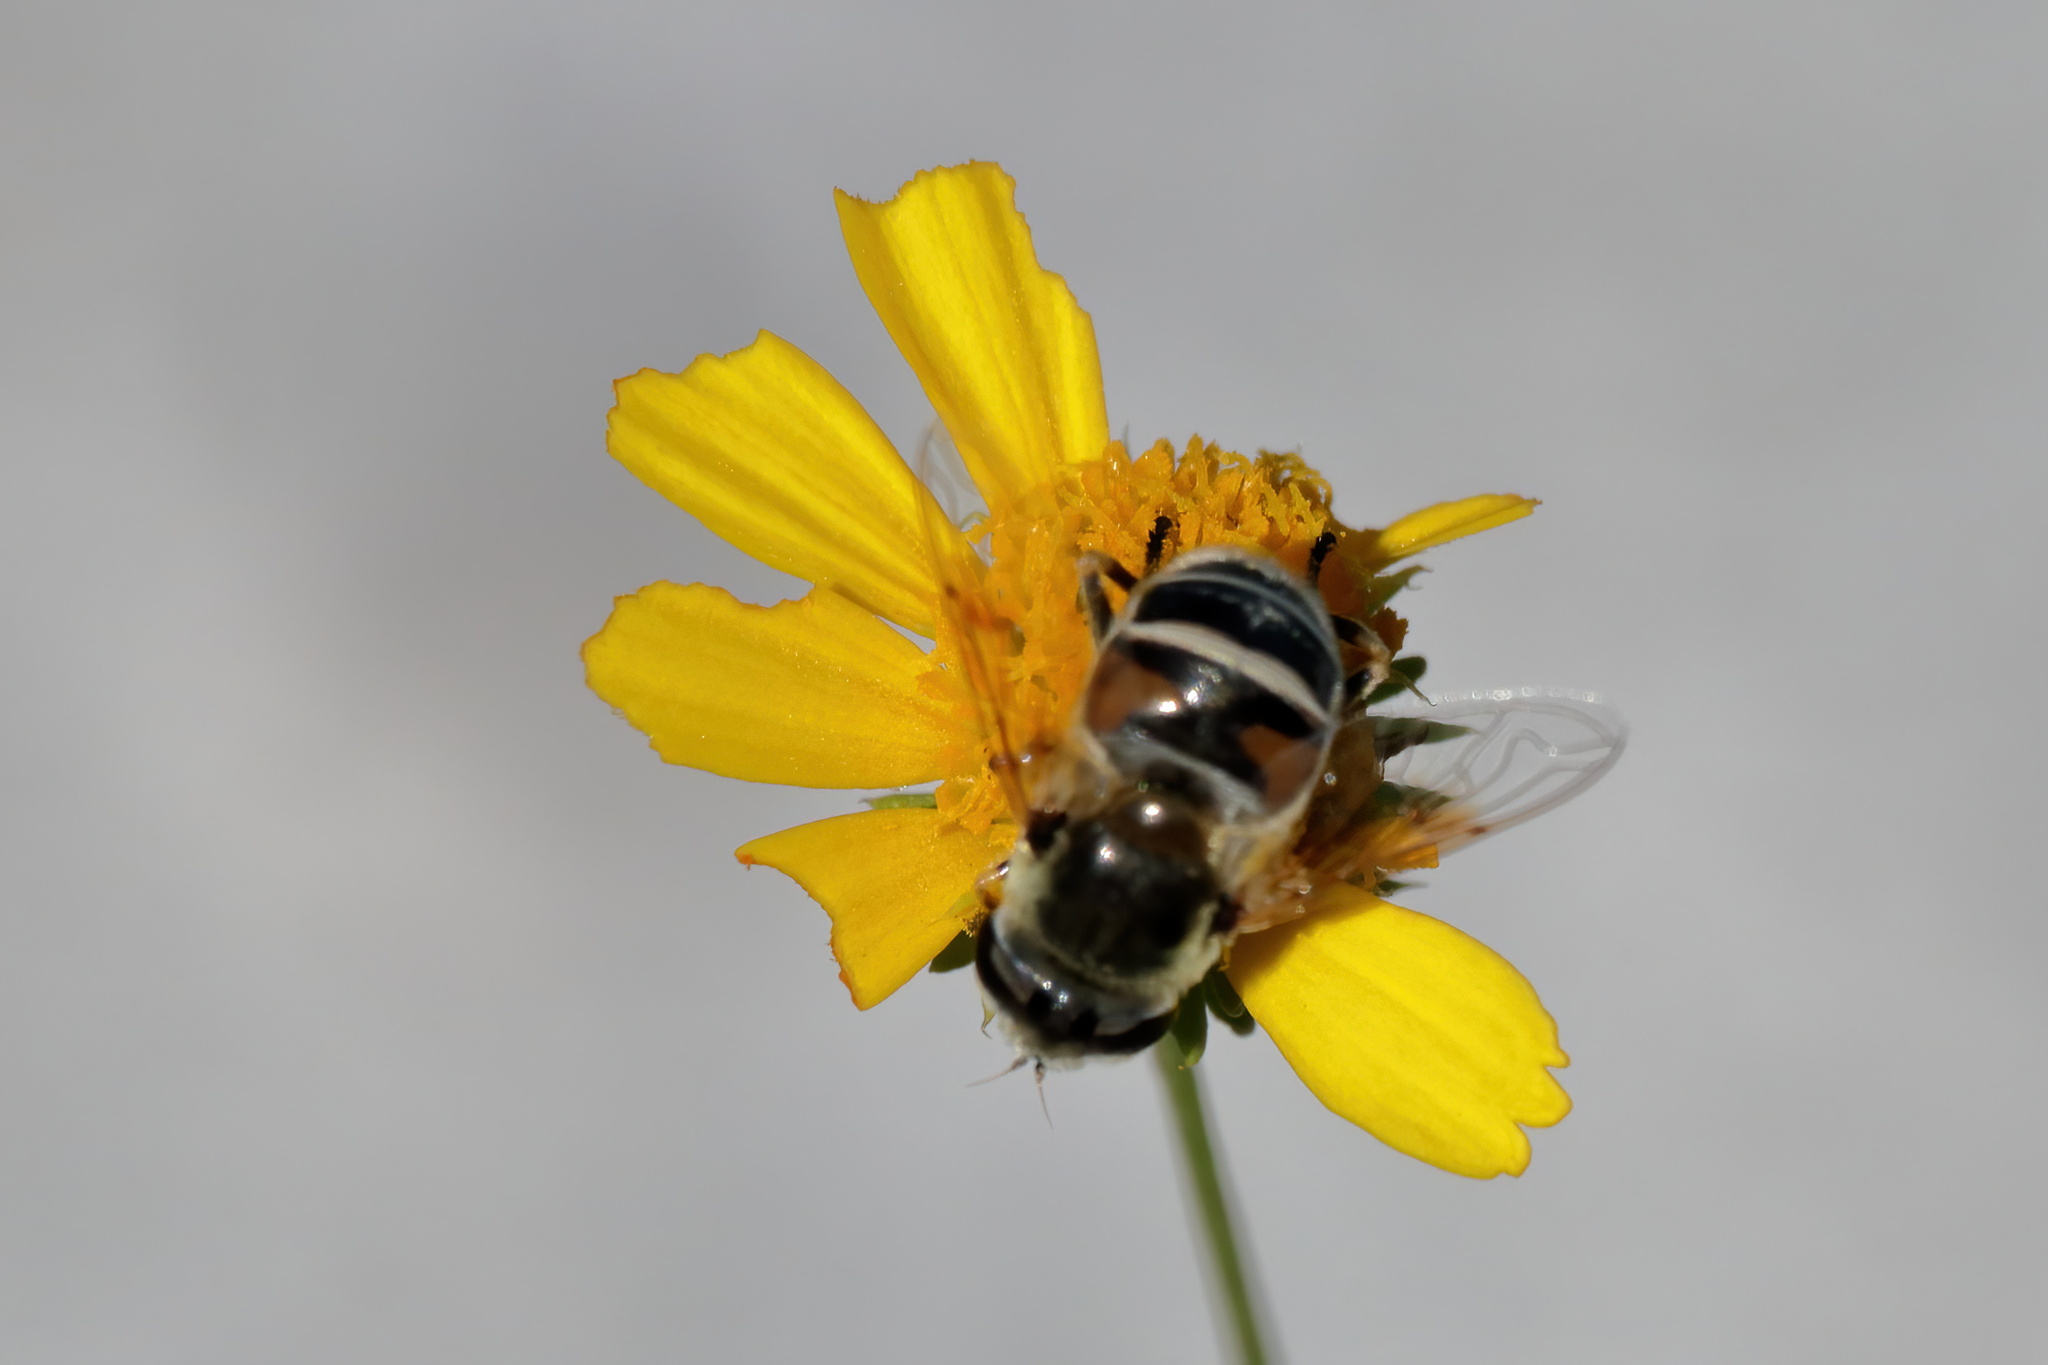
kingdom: Animalia
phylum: Arthropoda
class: Insecta
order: Diptera
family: Syrphidae
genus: Eristalis
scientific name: Eristalis stipator
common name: Yellow-shouldered drone fly
